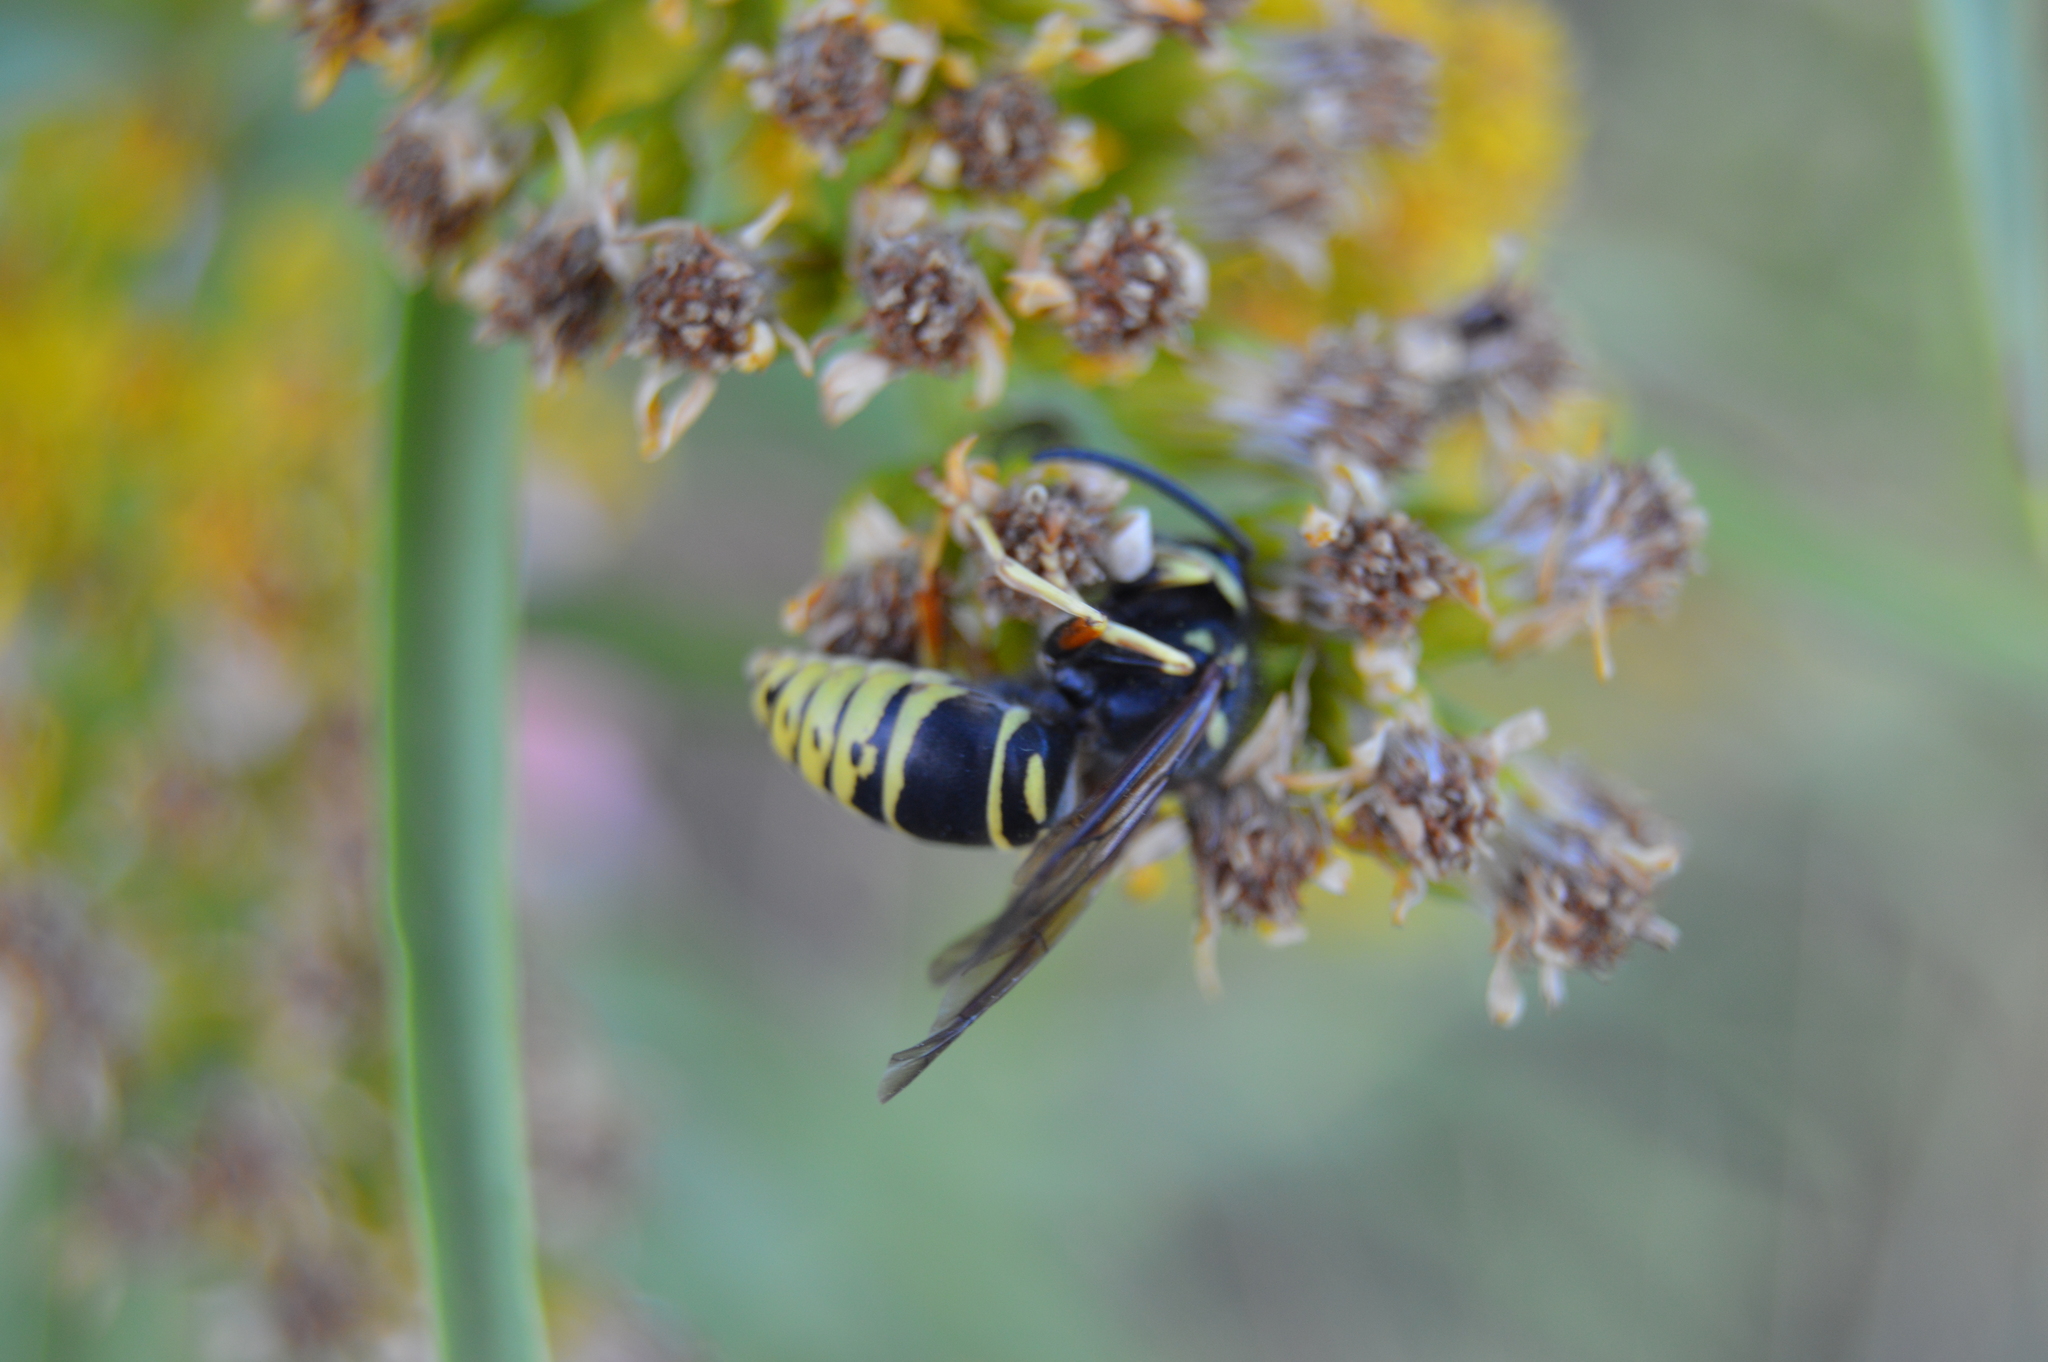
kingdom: Animalia
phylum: Arthropoda
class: Insecta
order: Hymenoptera
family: Vespidae
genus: Vespula
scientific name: Vespula vidua
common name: Widow yellowjacket
